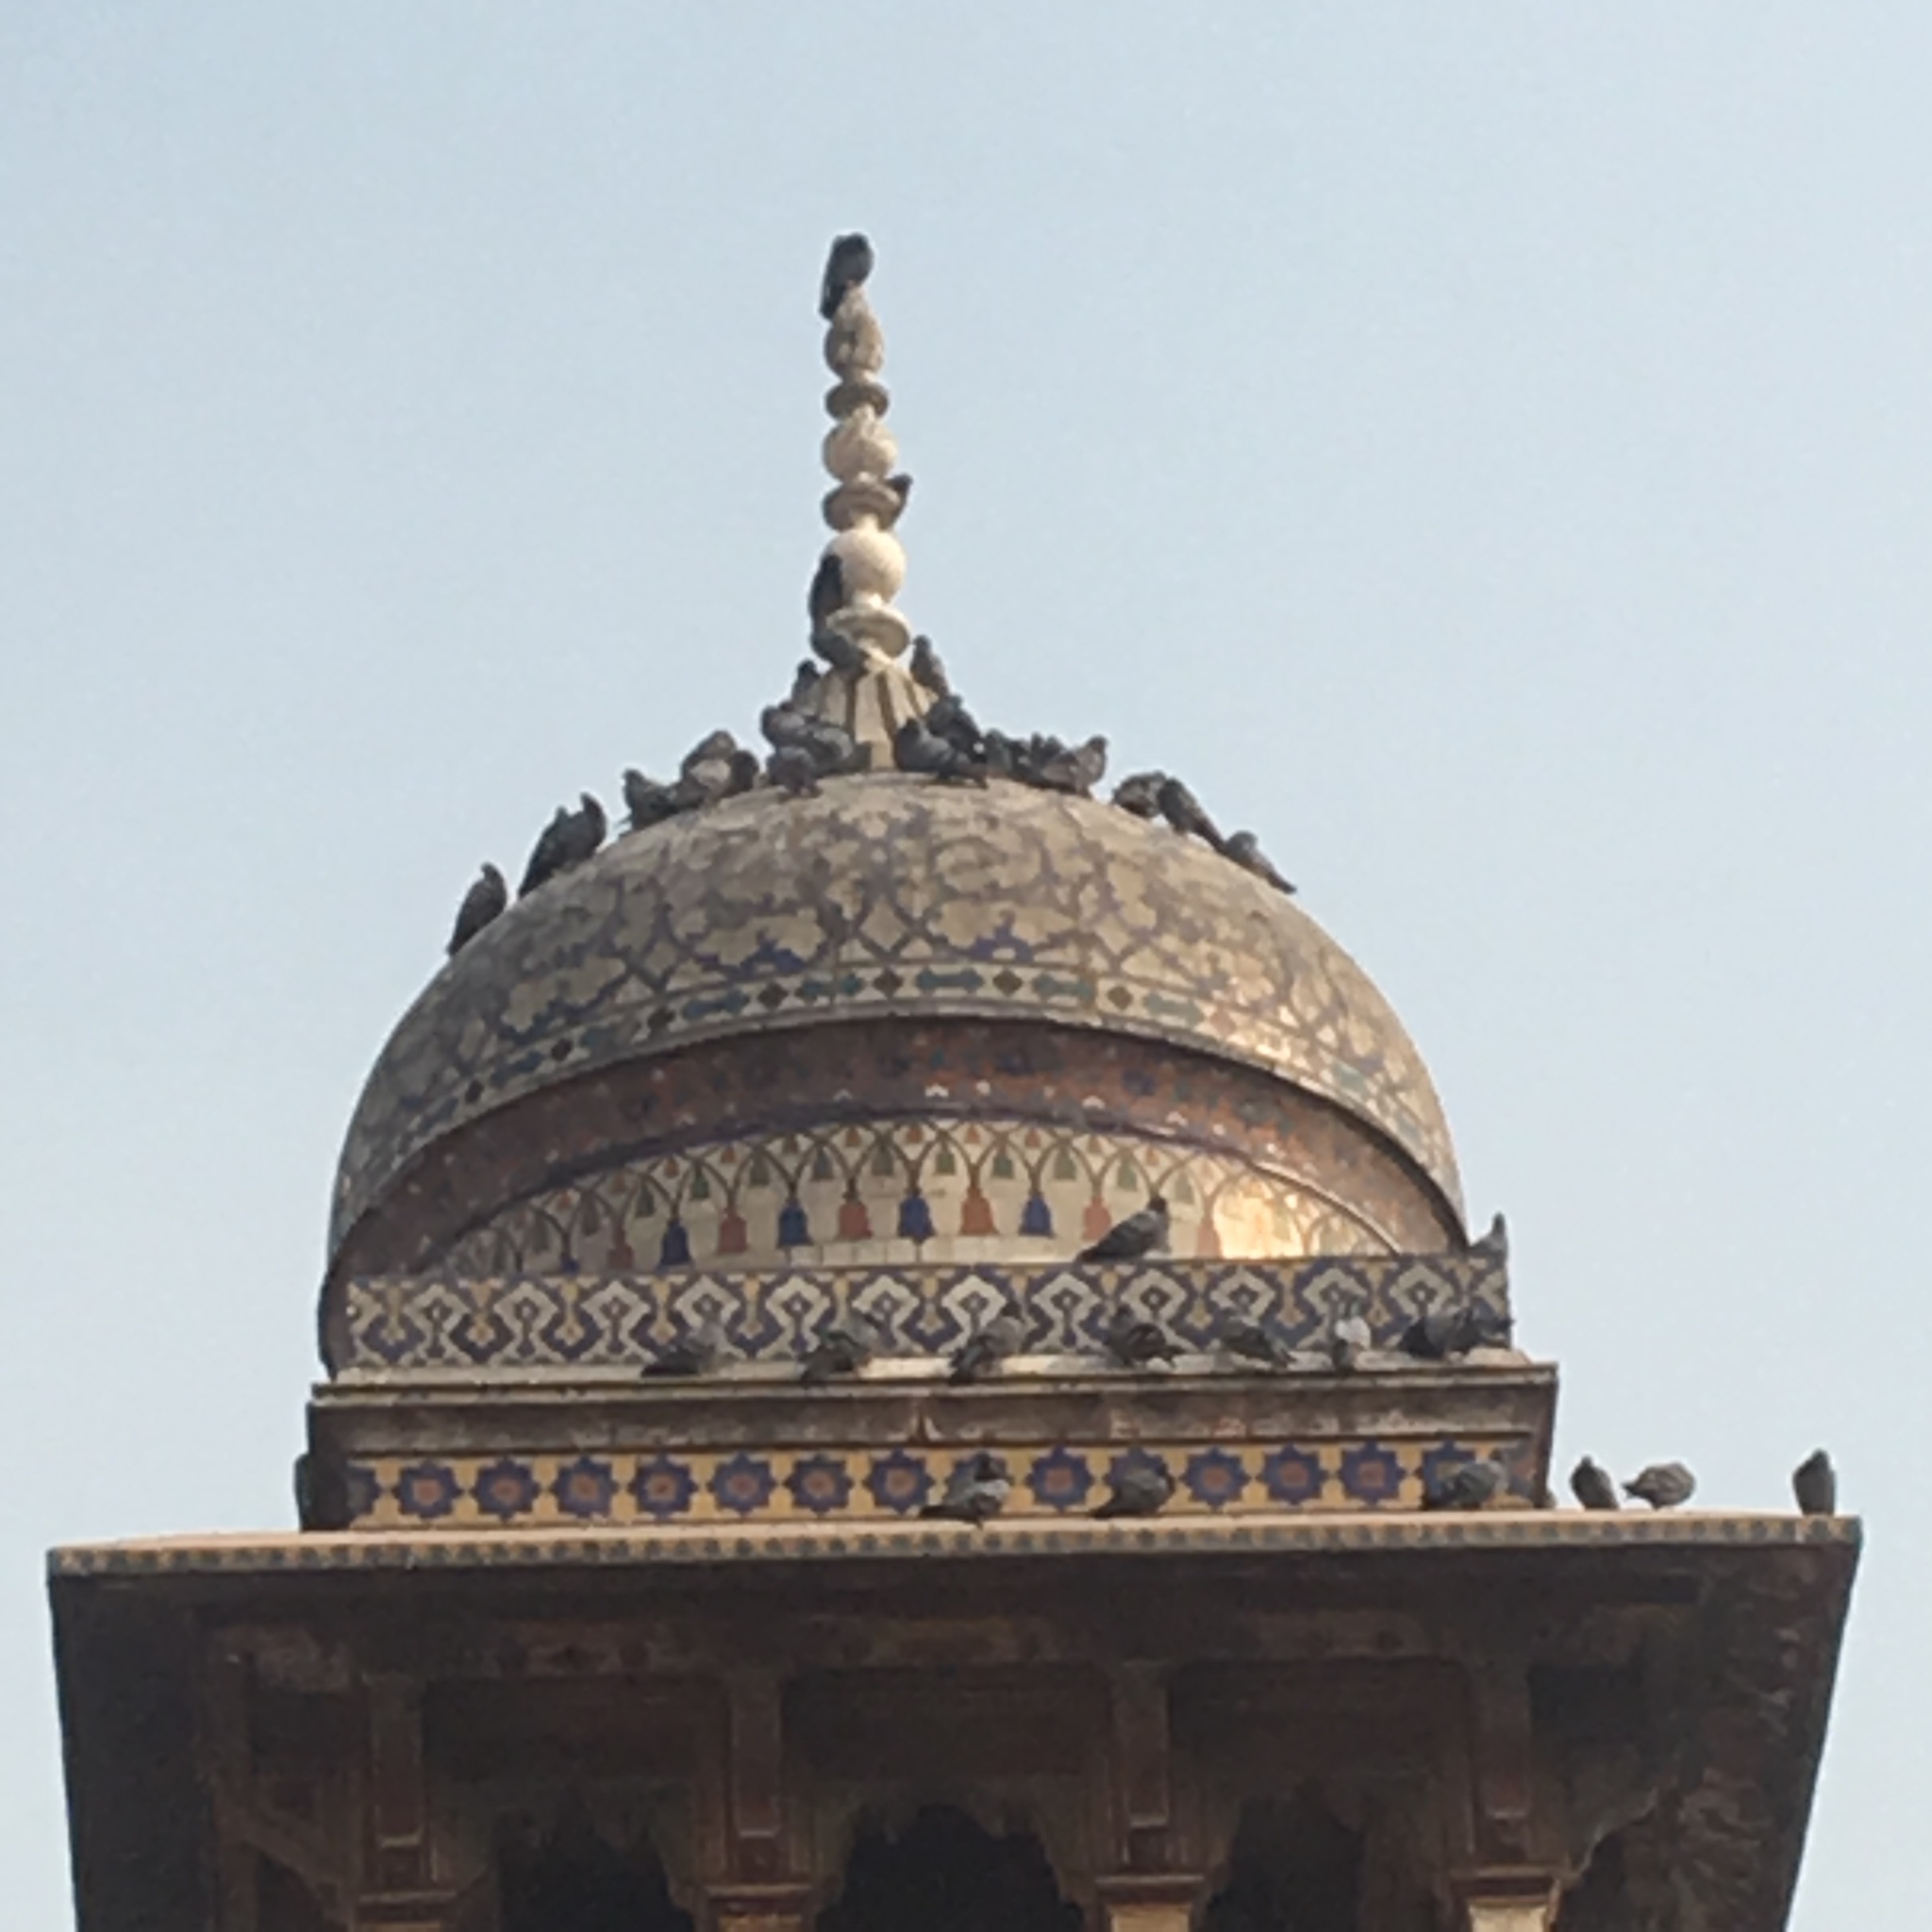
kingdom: Animalia
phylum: Chordata
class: Aves
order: Columbiformes
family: Columbidae
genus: Columba
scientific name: Columba livia
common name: Rock pigeon
